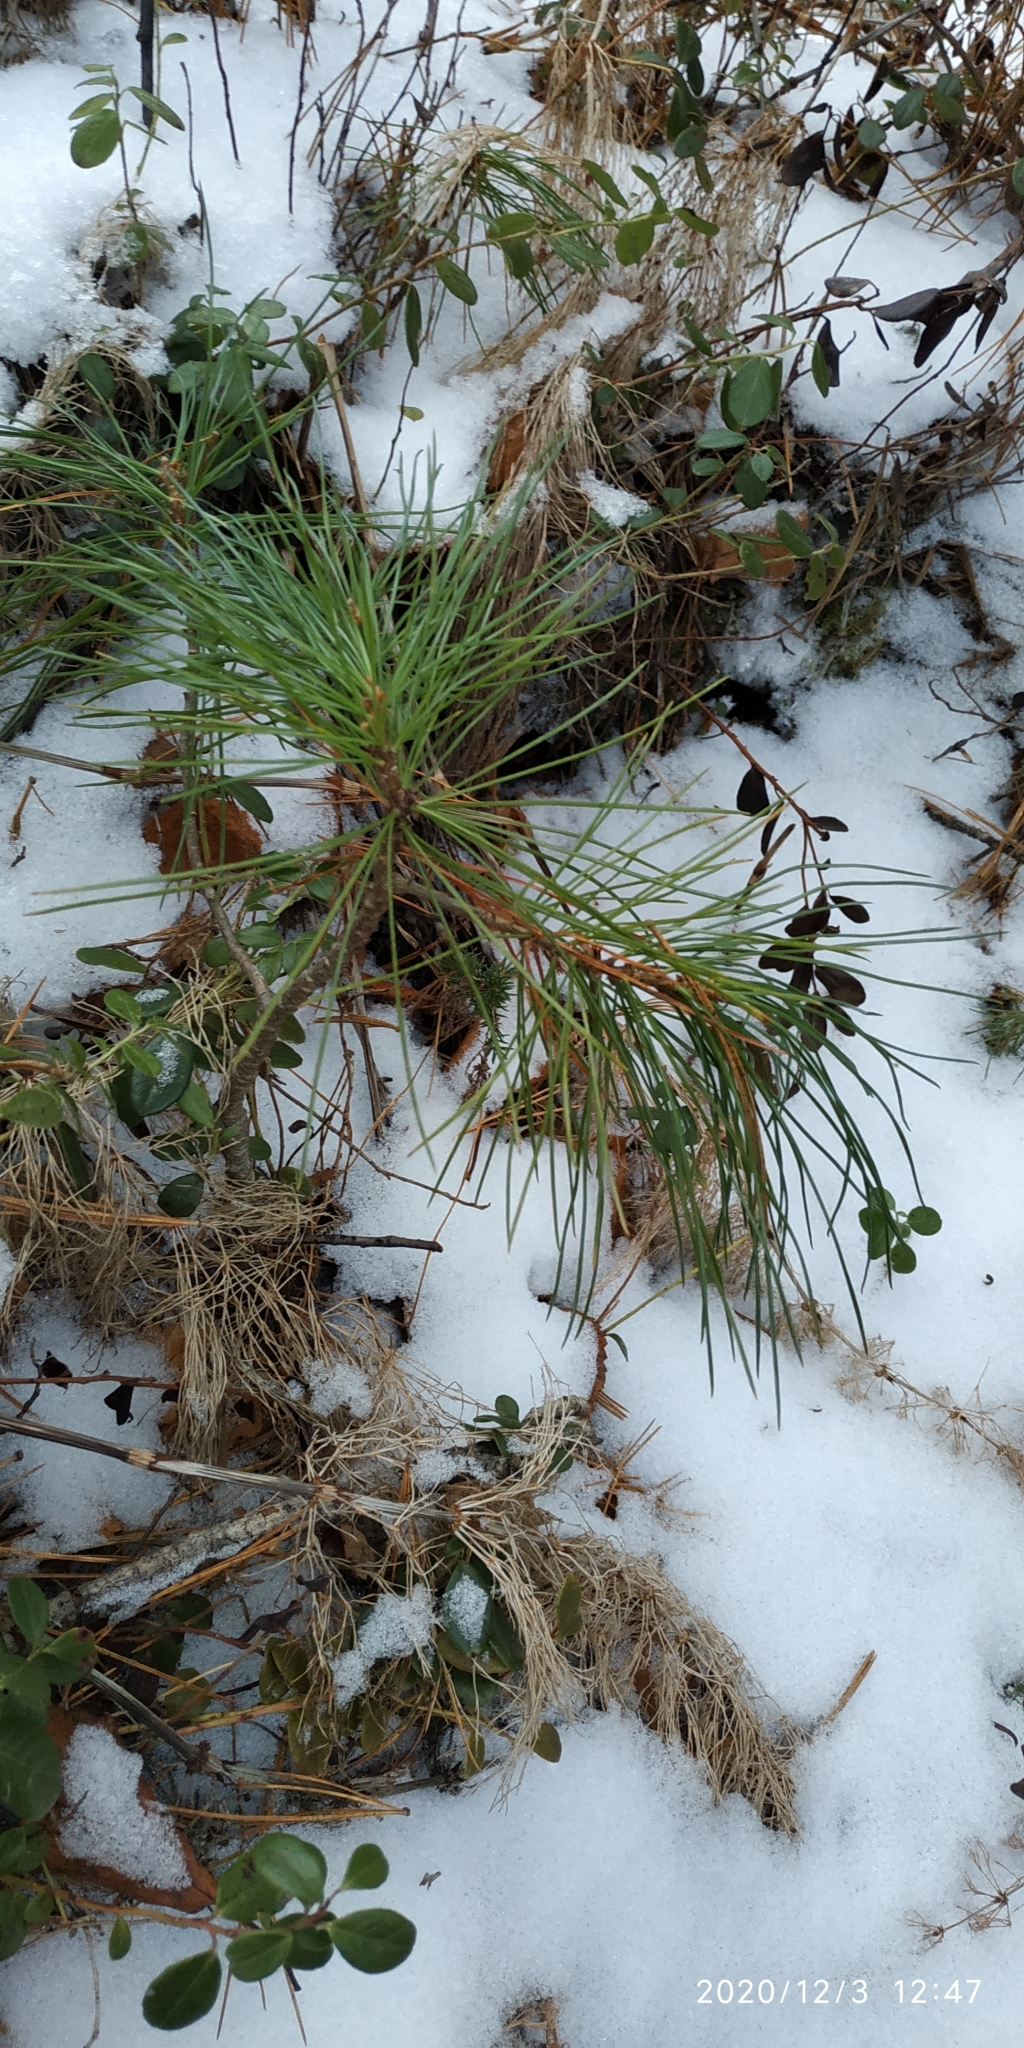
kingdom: Plantae
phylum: Tracheophyta
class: Pinopsida
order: Pinales
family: Pinaceae
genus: Pinus
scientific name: Pinus sibirica
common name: Siberian pine
